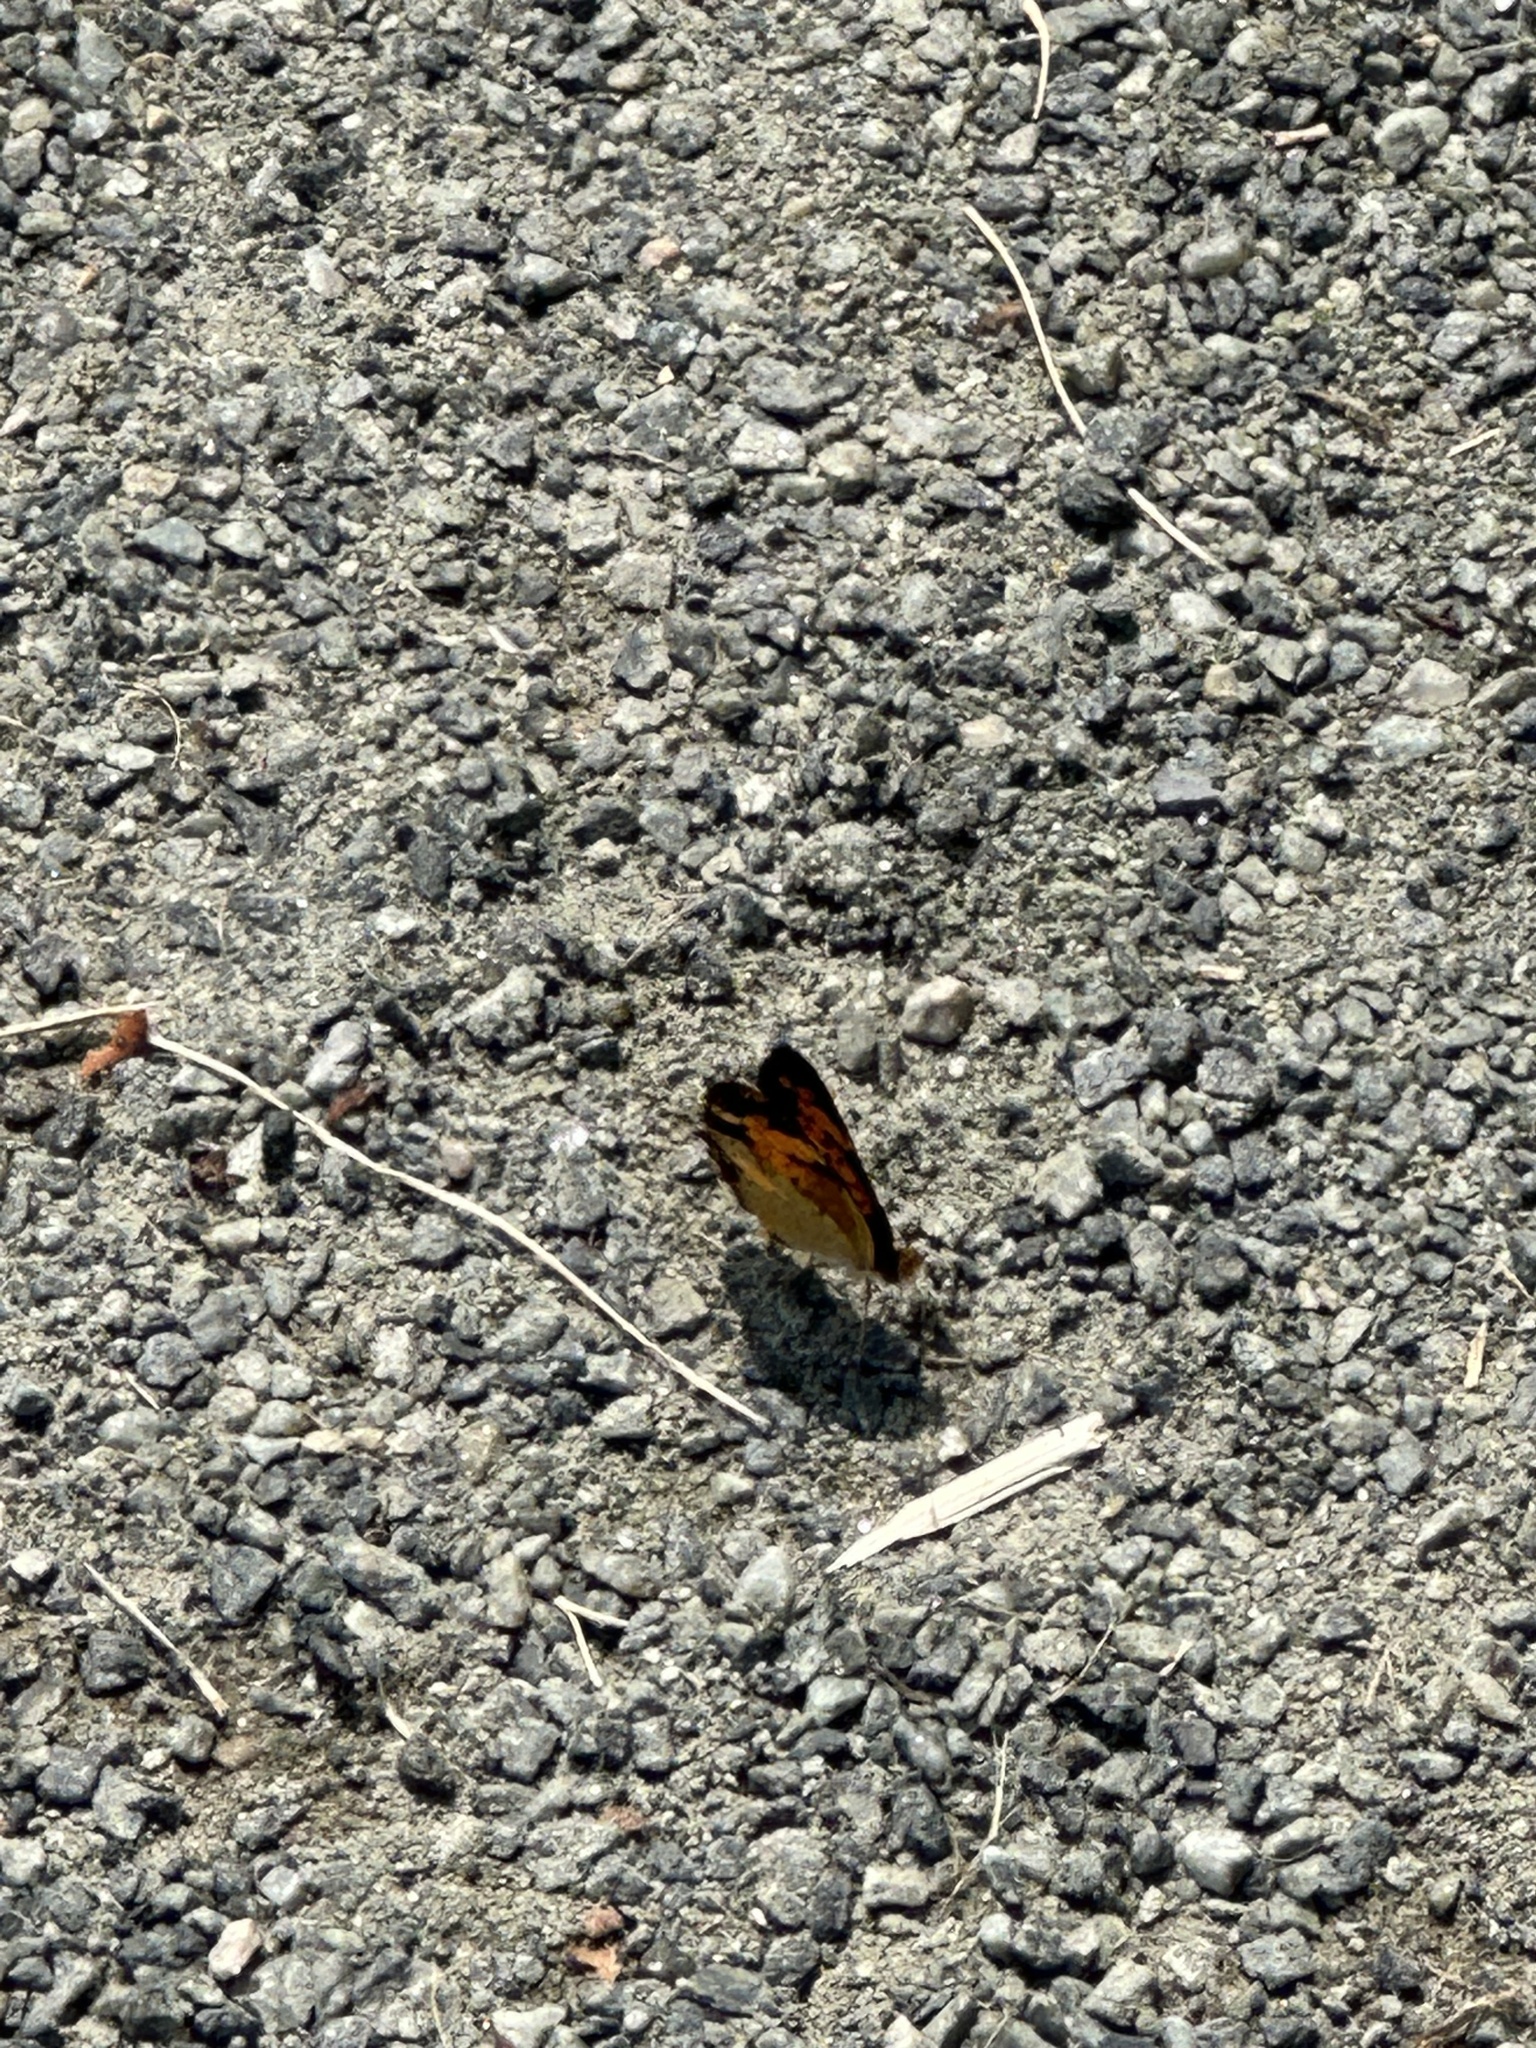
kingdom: Animalia
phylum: Arthropoda
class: Insecta
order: Lepidoptera
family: Nymphalidae
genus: Phyciodes
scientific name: Phyciodes tharos
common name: Pearl crescent
